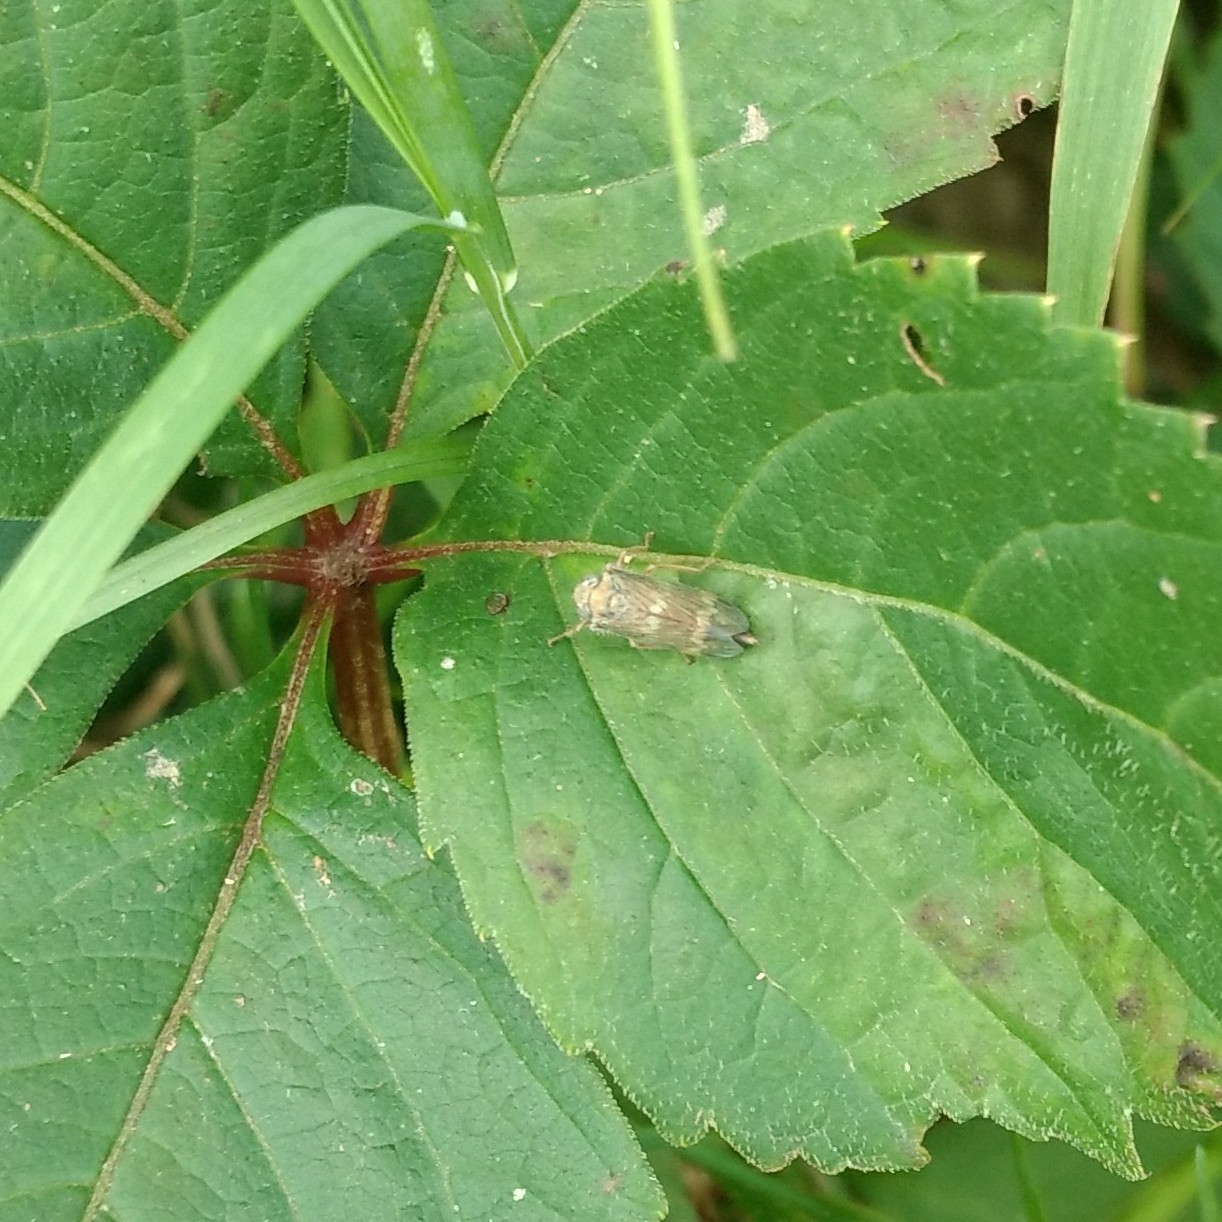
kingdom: Animalia
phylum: Arthropoda
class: Insecta
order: Hemiptera
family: Cicadellidae
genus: Jikradia
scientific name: Jikradia olitoria
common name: Coppery leafhopper
